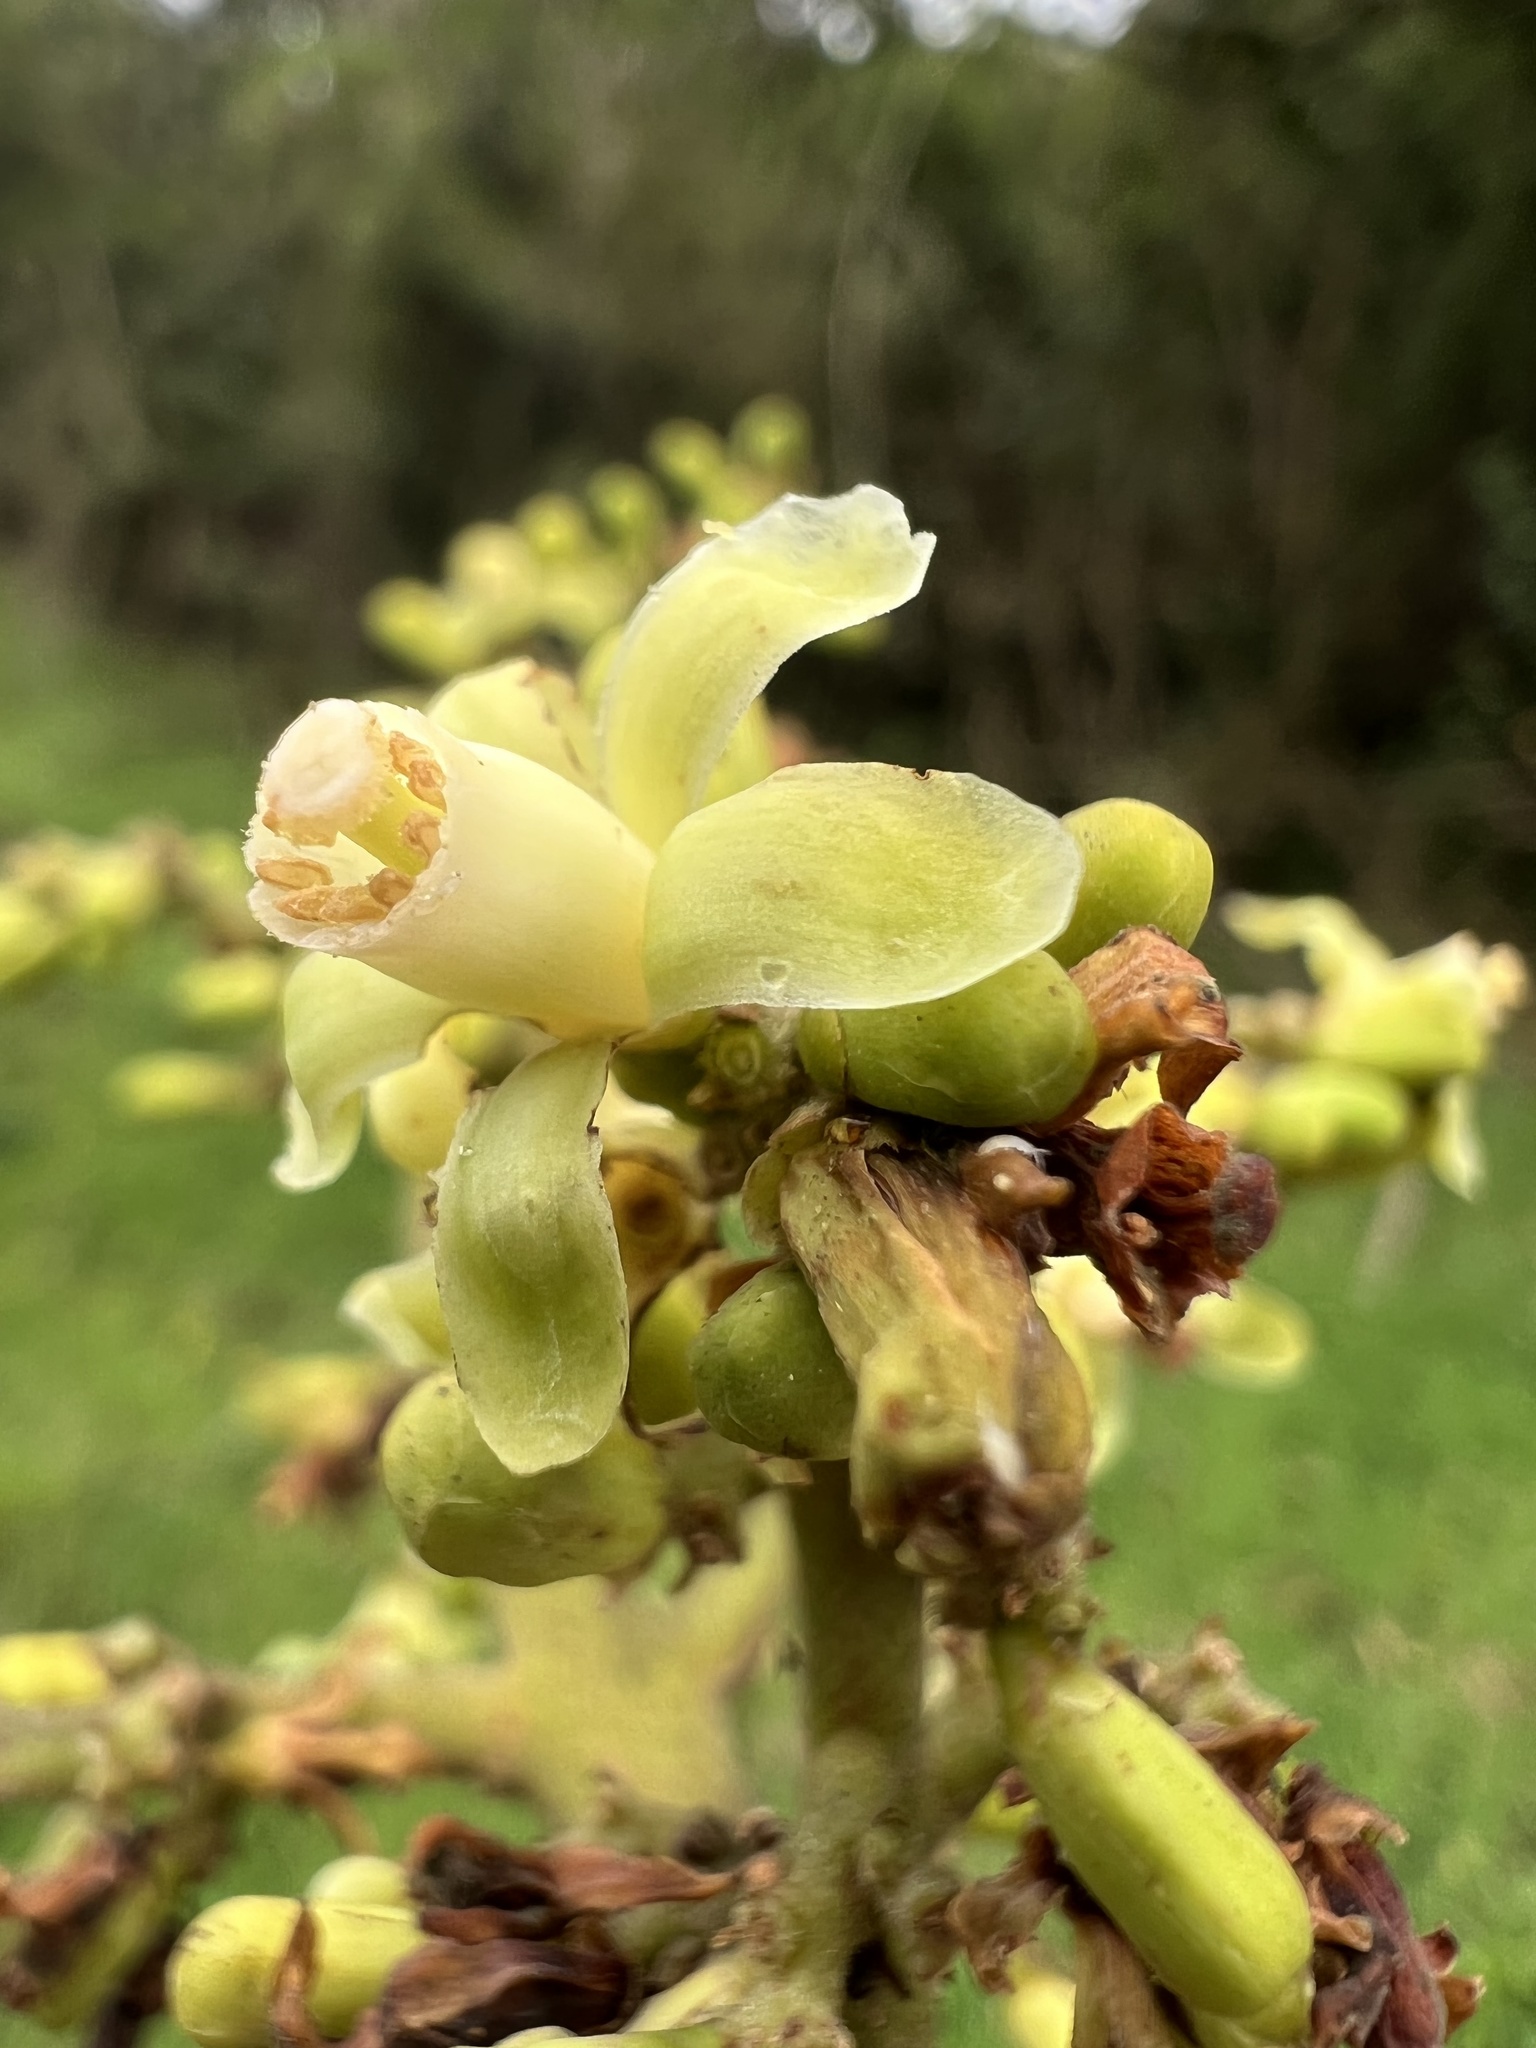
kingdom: Plantae
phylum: Tracheophyta
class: Magnoliopsida
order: Sapindales
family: Meliaceae
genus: Ruagea
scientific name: Ruagea pubescens
